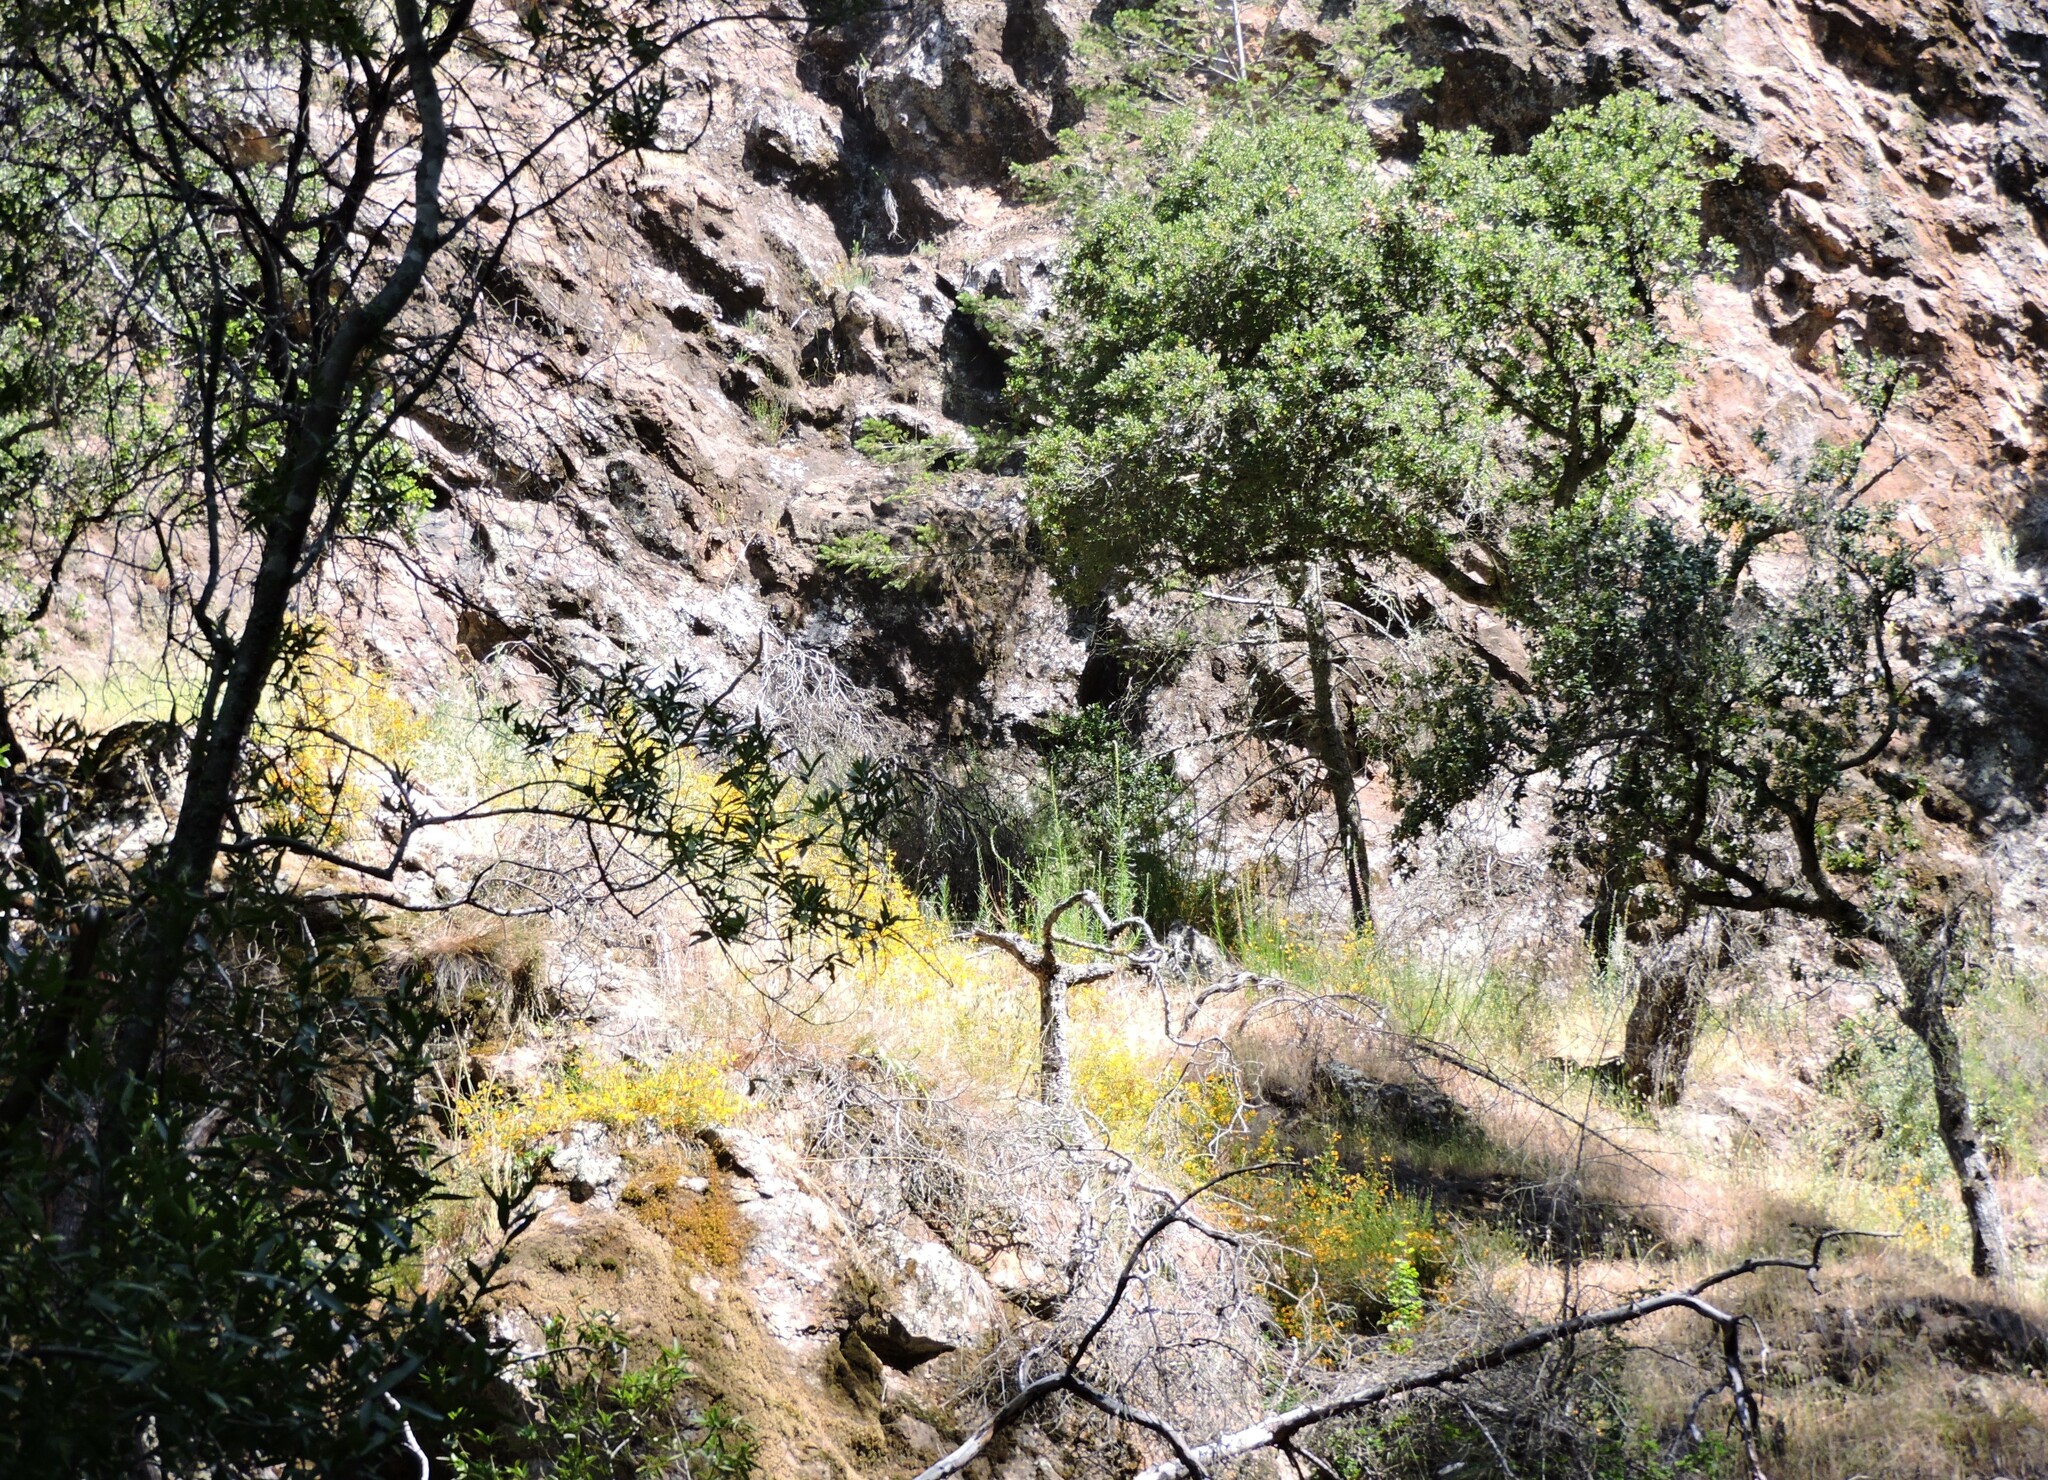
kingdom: Plantae
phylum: Tracheophyta
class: Magnoliopsida
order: Lamiales
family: Phrymaceae
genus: Diplacus
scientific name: Diplacus aurantiacus
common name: Bush monkey-flower
